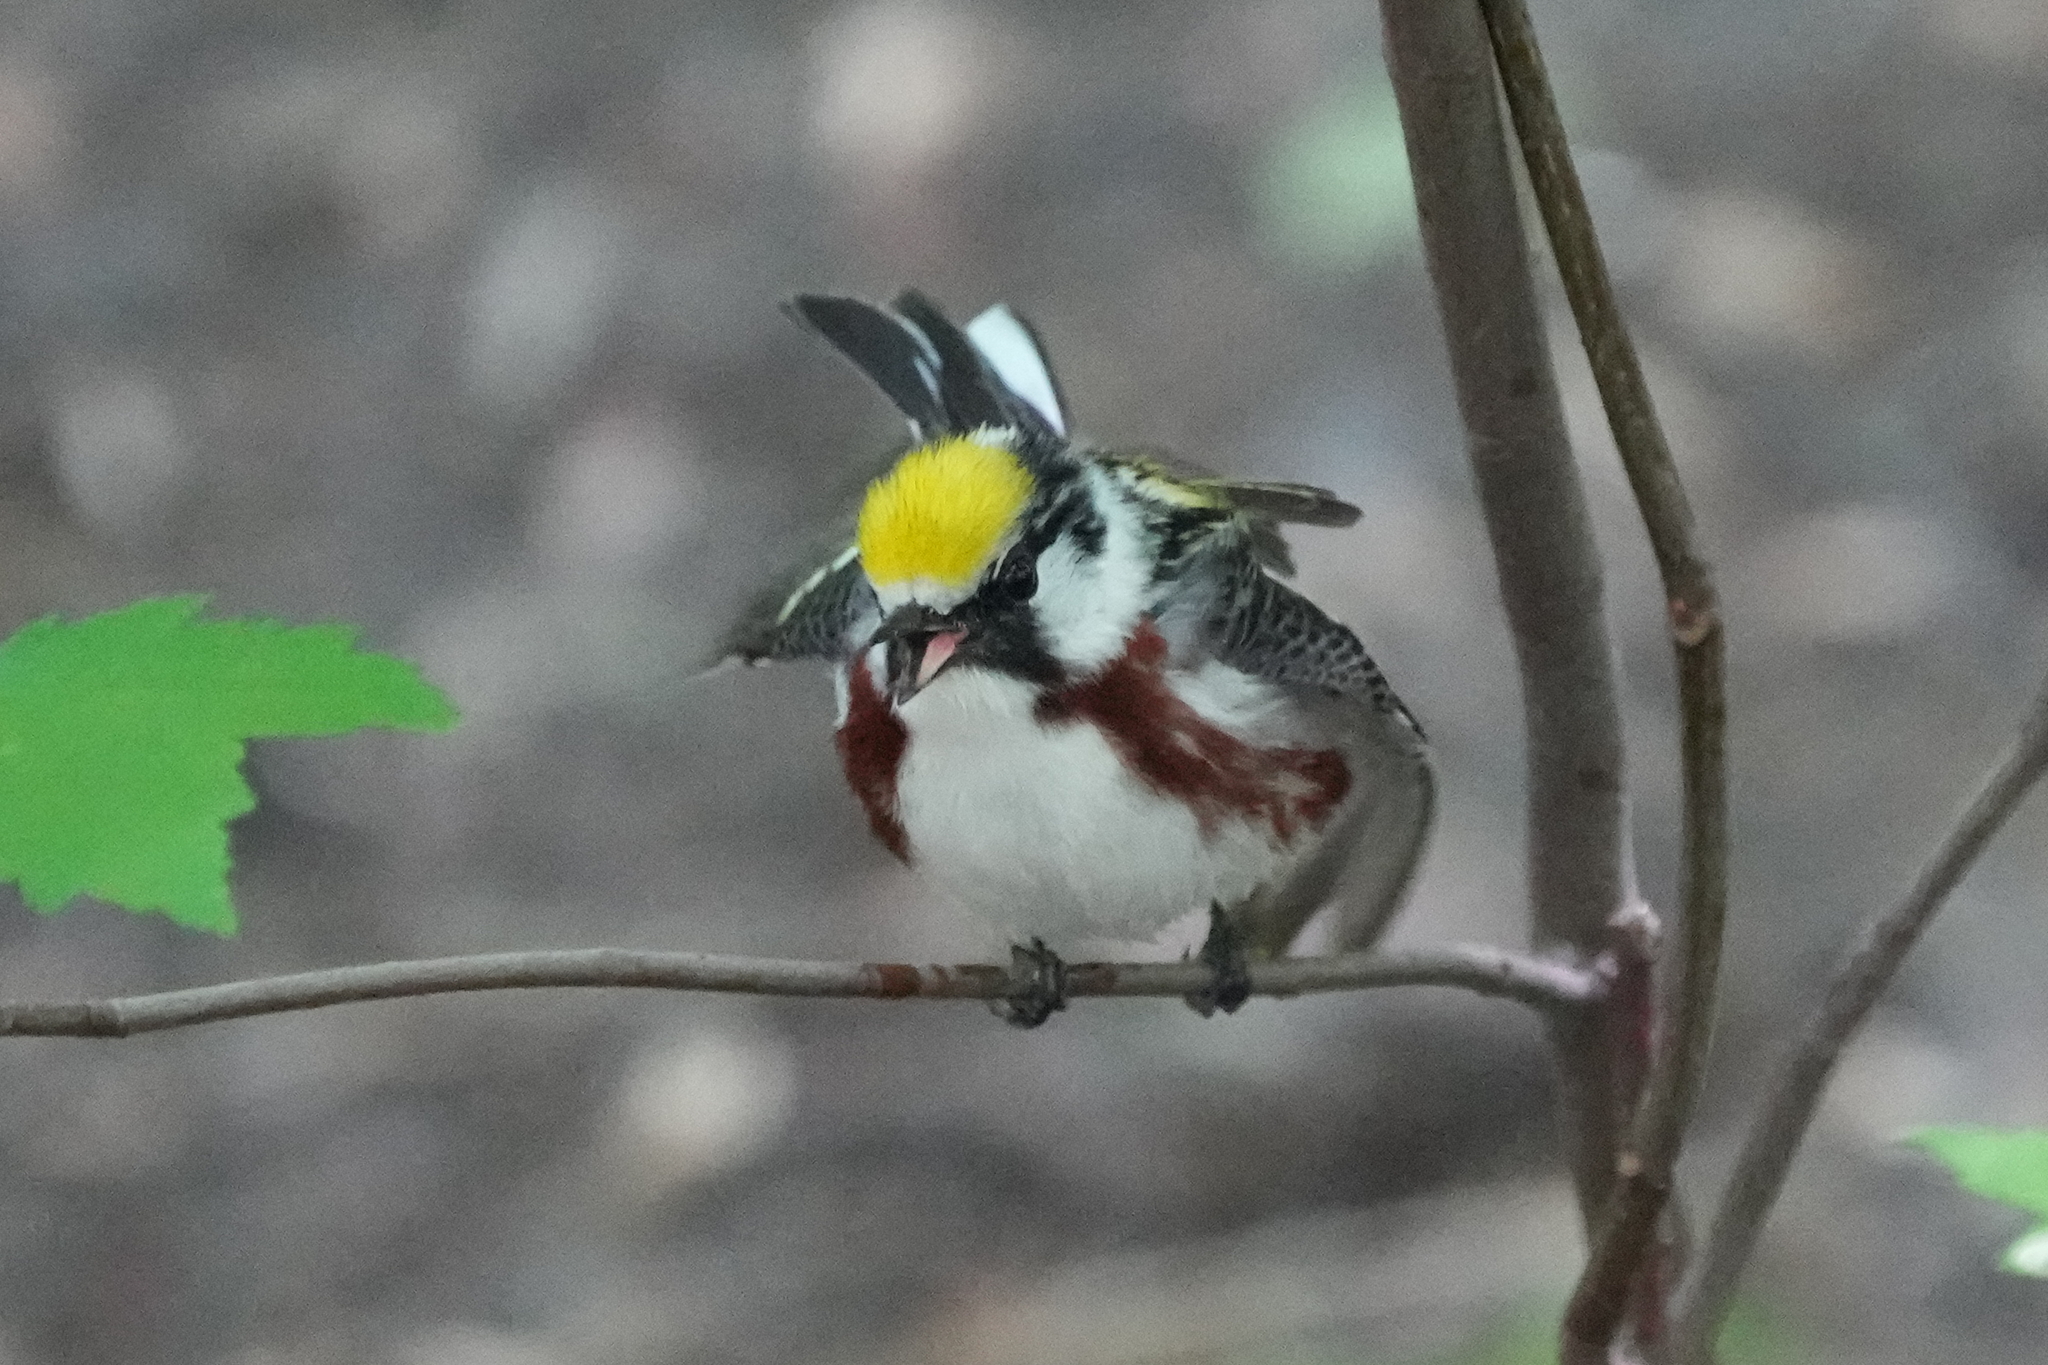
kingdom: Animalia
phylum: Chordata
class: Aves
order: Passeriformes
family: Parulidae
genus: Setophaga
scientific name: Setophaga pensylvanica
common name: Chestnut-sided warbler
